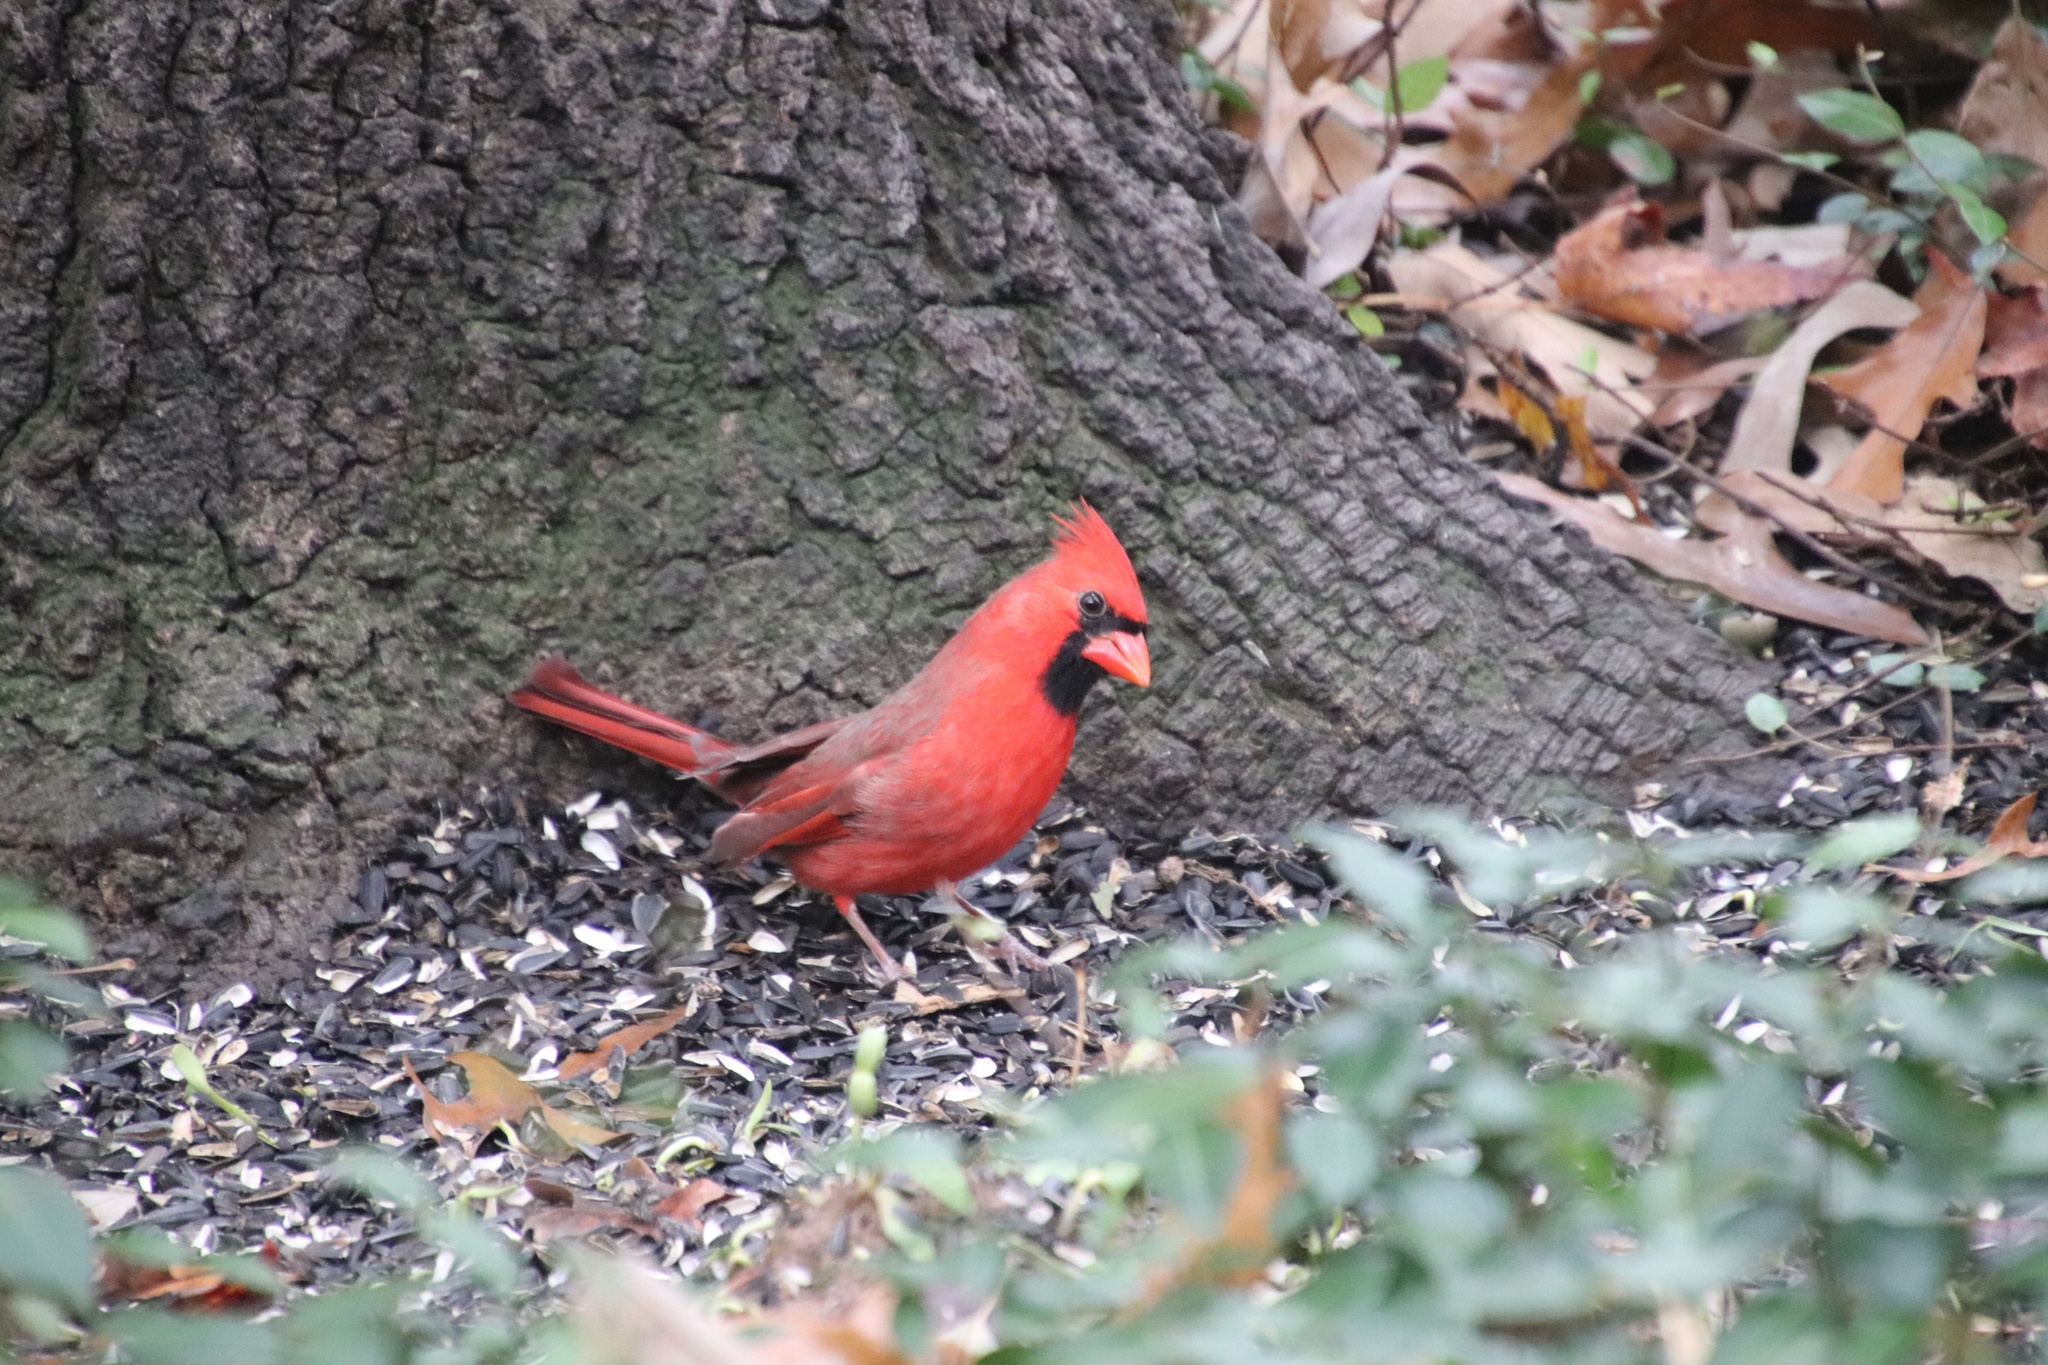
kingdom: Animalia
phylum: Chordata
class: Aves
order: Passeriformes
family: Cardinalidae
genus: Cardinalis
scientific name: Cardinalis cardinalis
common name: Northern cardinal
